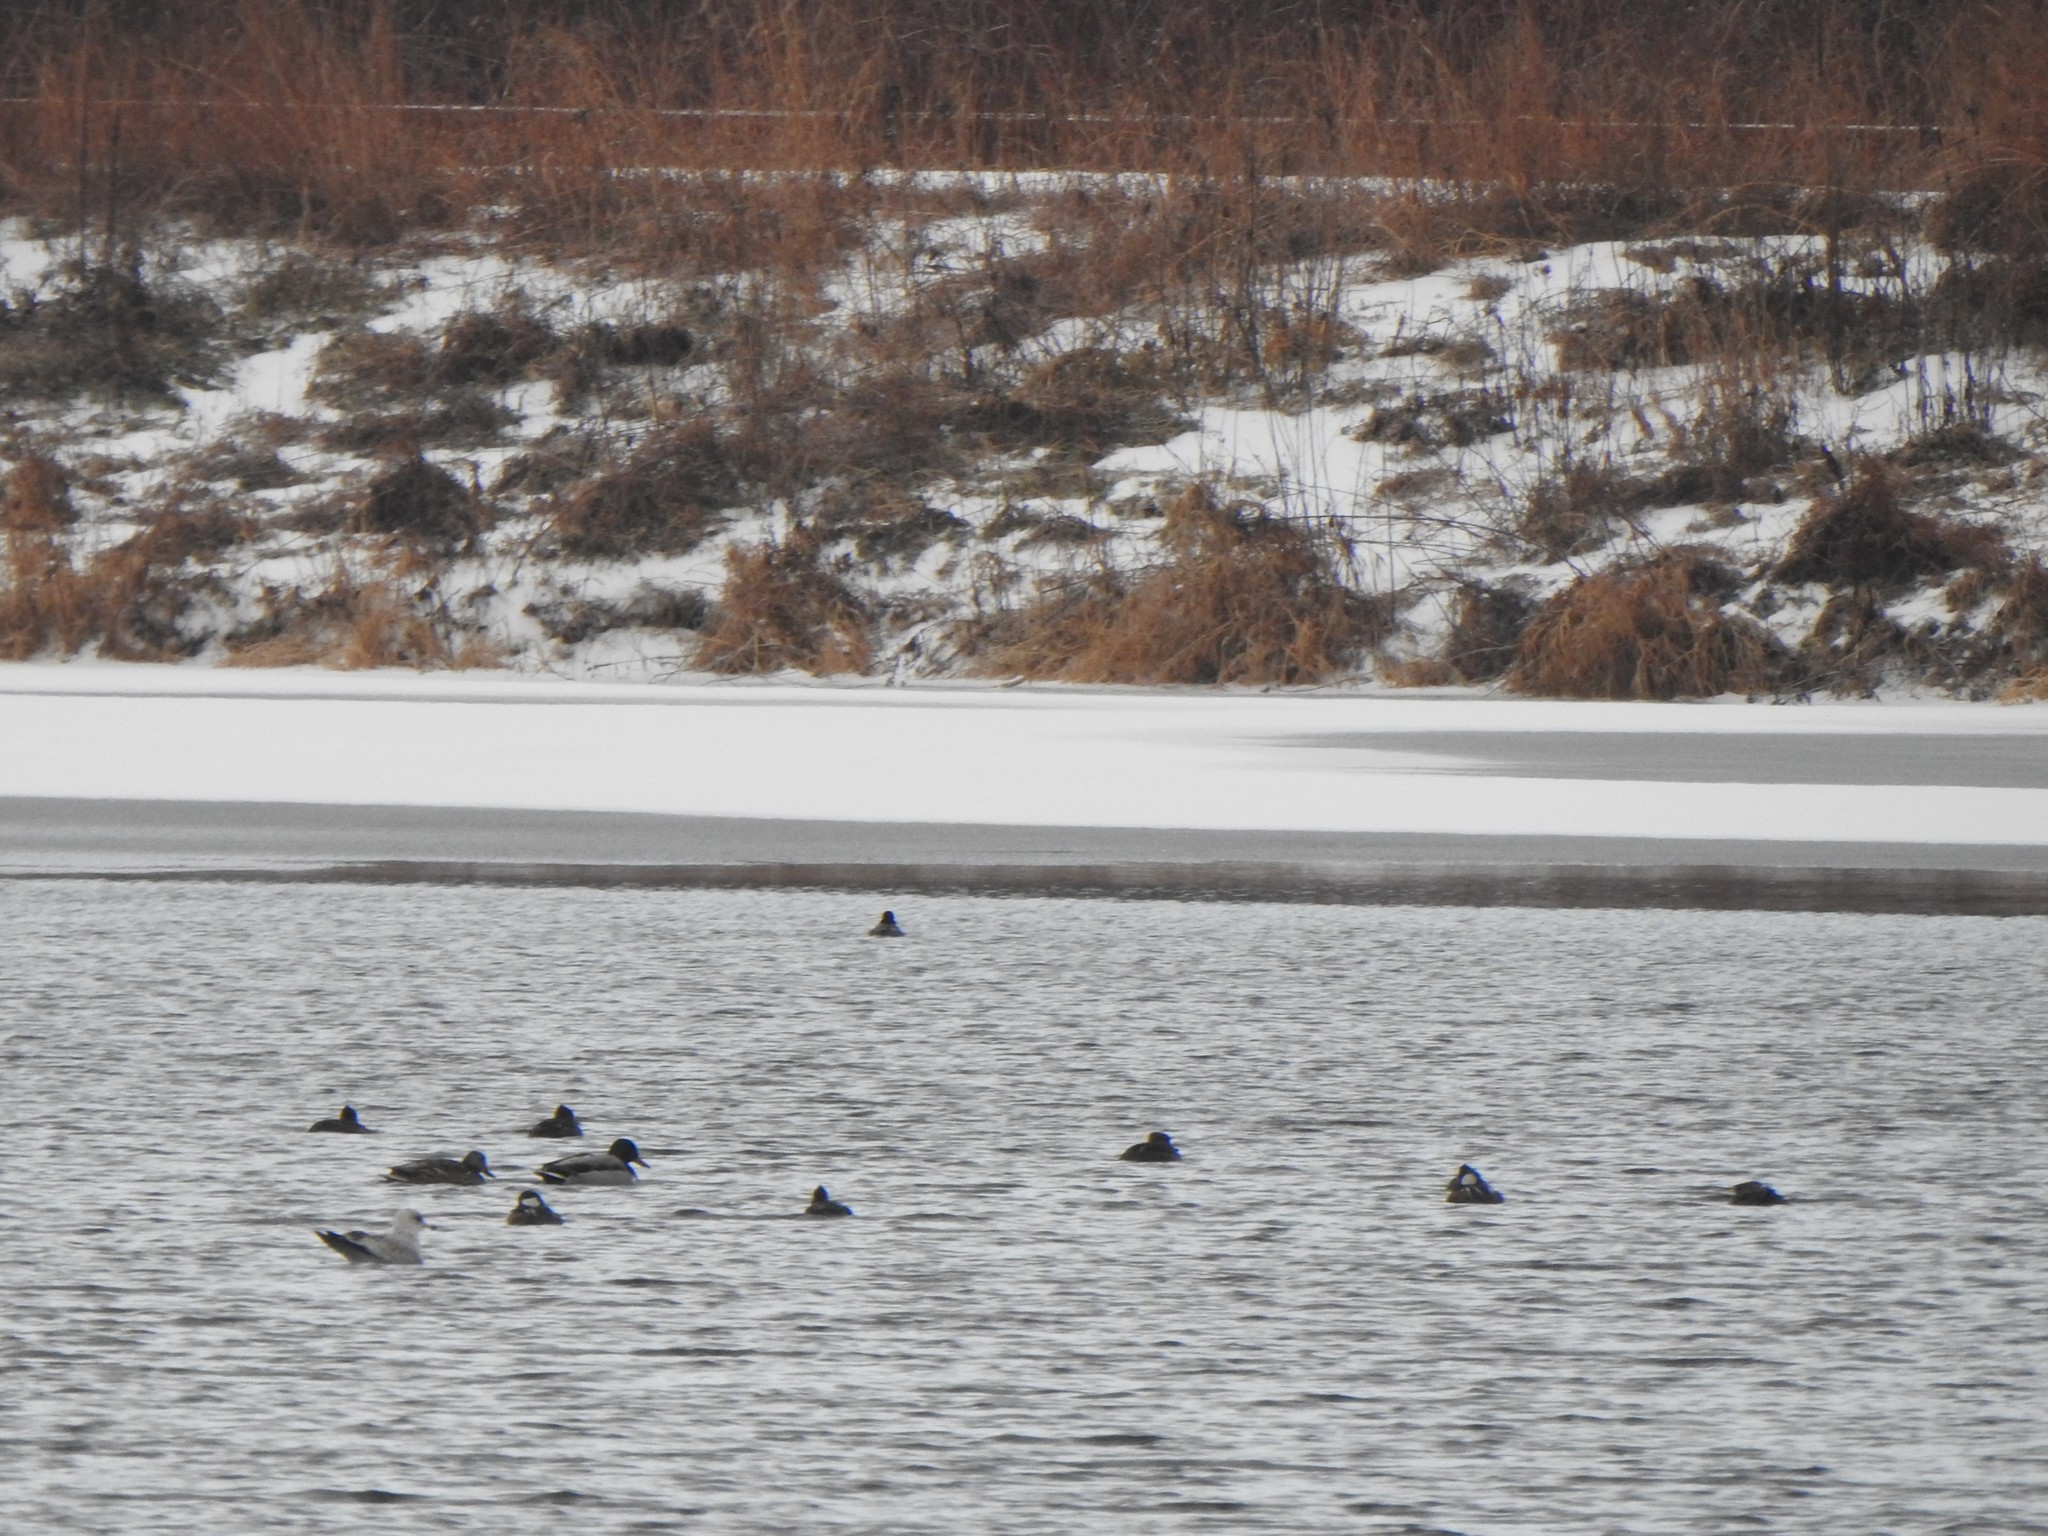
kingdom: Animalia
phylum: Chordata
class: Aves
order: Anseriformes
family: Anatidae
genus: Lophodytes
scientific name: Lophodytes cucullatus
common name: Hooded merganser
